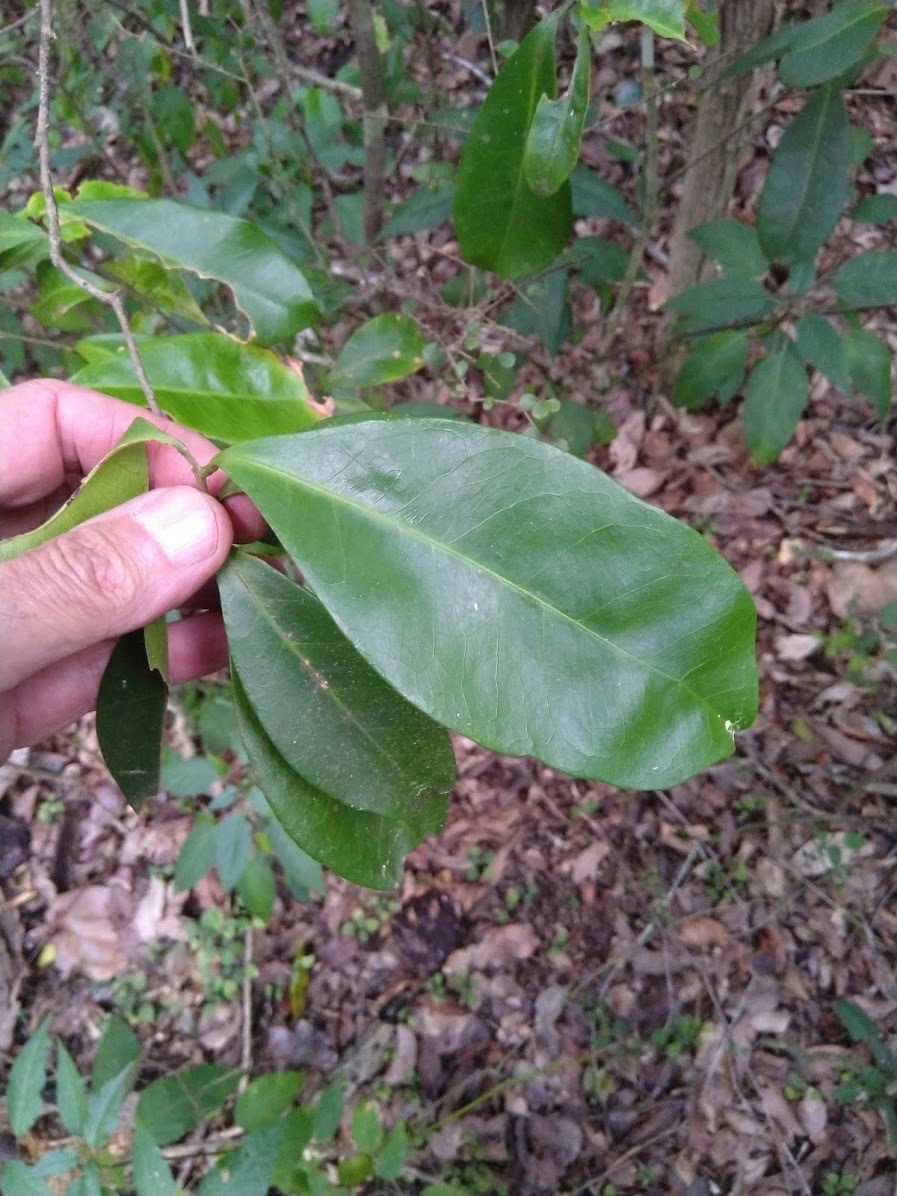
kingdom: Plantae
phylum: Tracheophyta
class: Magnoliopsida
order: Malpighiales
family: Euphorbiaceae
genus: Fontainea
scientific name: Fontainea rostrata
